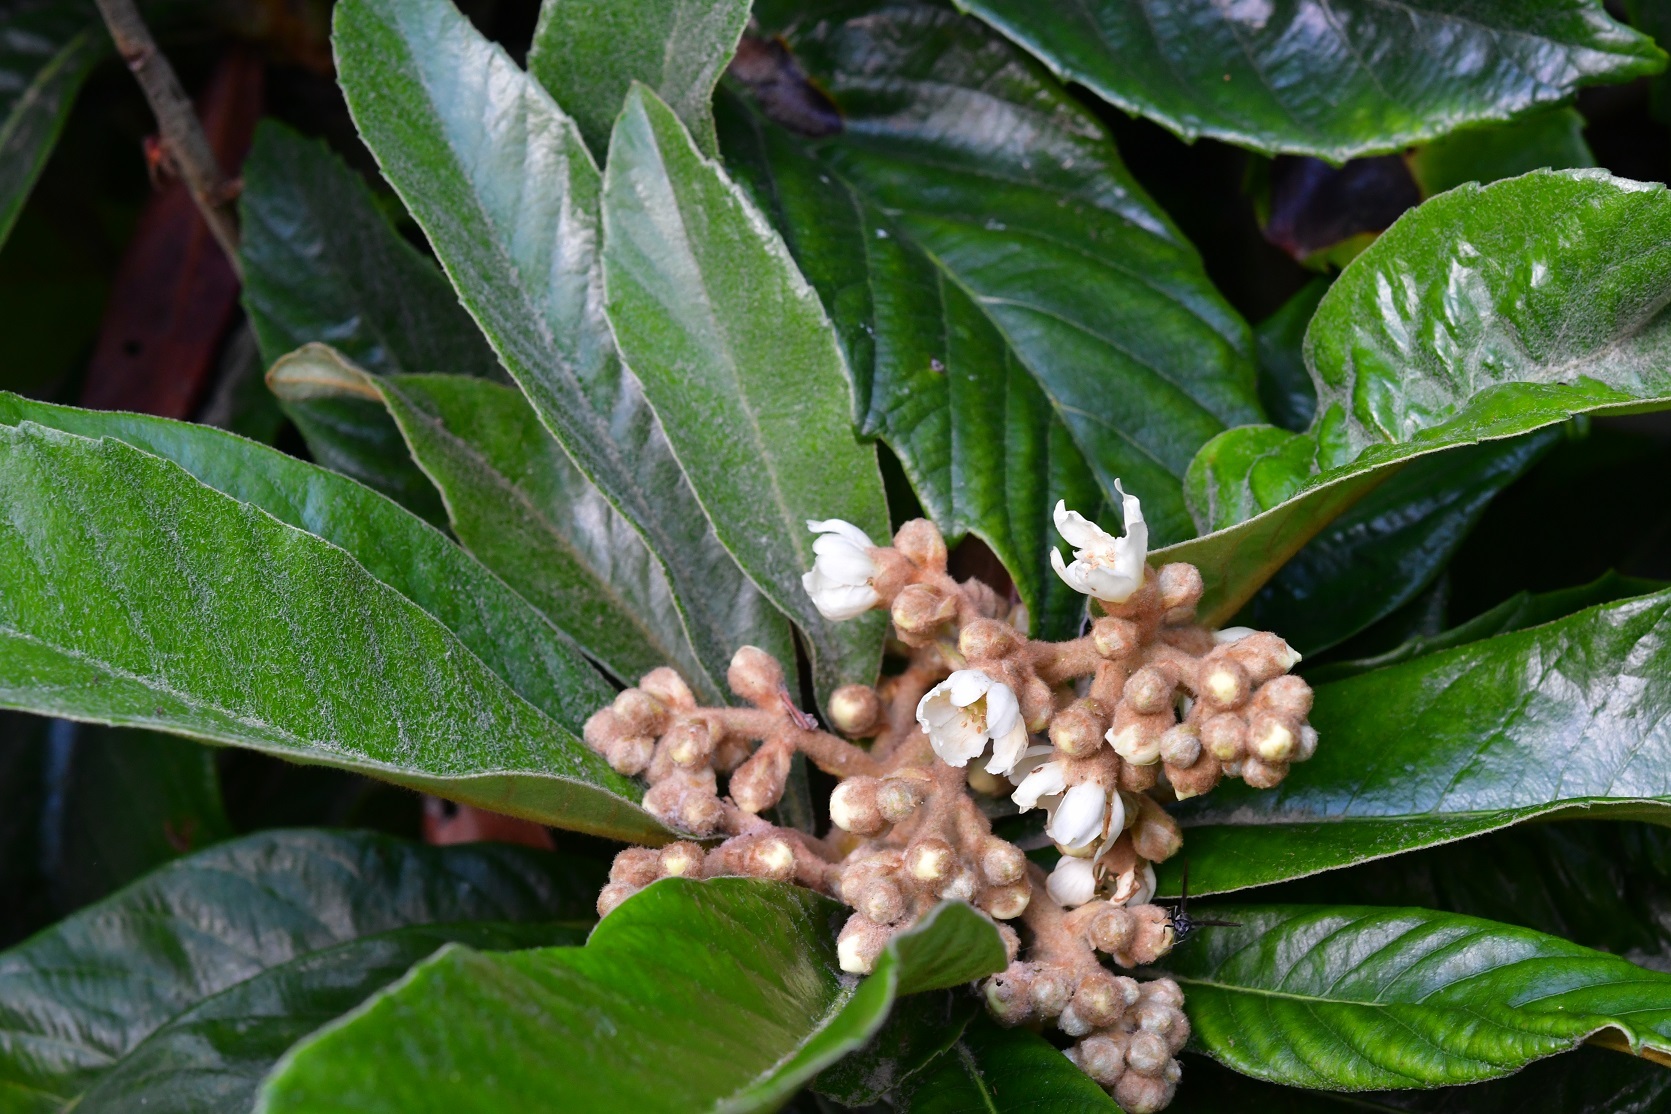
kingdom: Plantae
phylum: Tracheophyta
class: Magnoliopsida
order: Rosales
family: Rosaceae
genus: Rhaphiolepis
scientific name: Rhaphiolepis bibas
